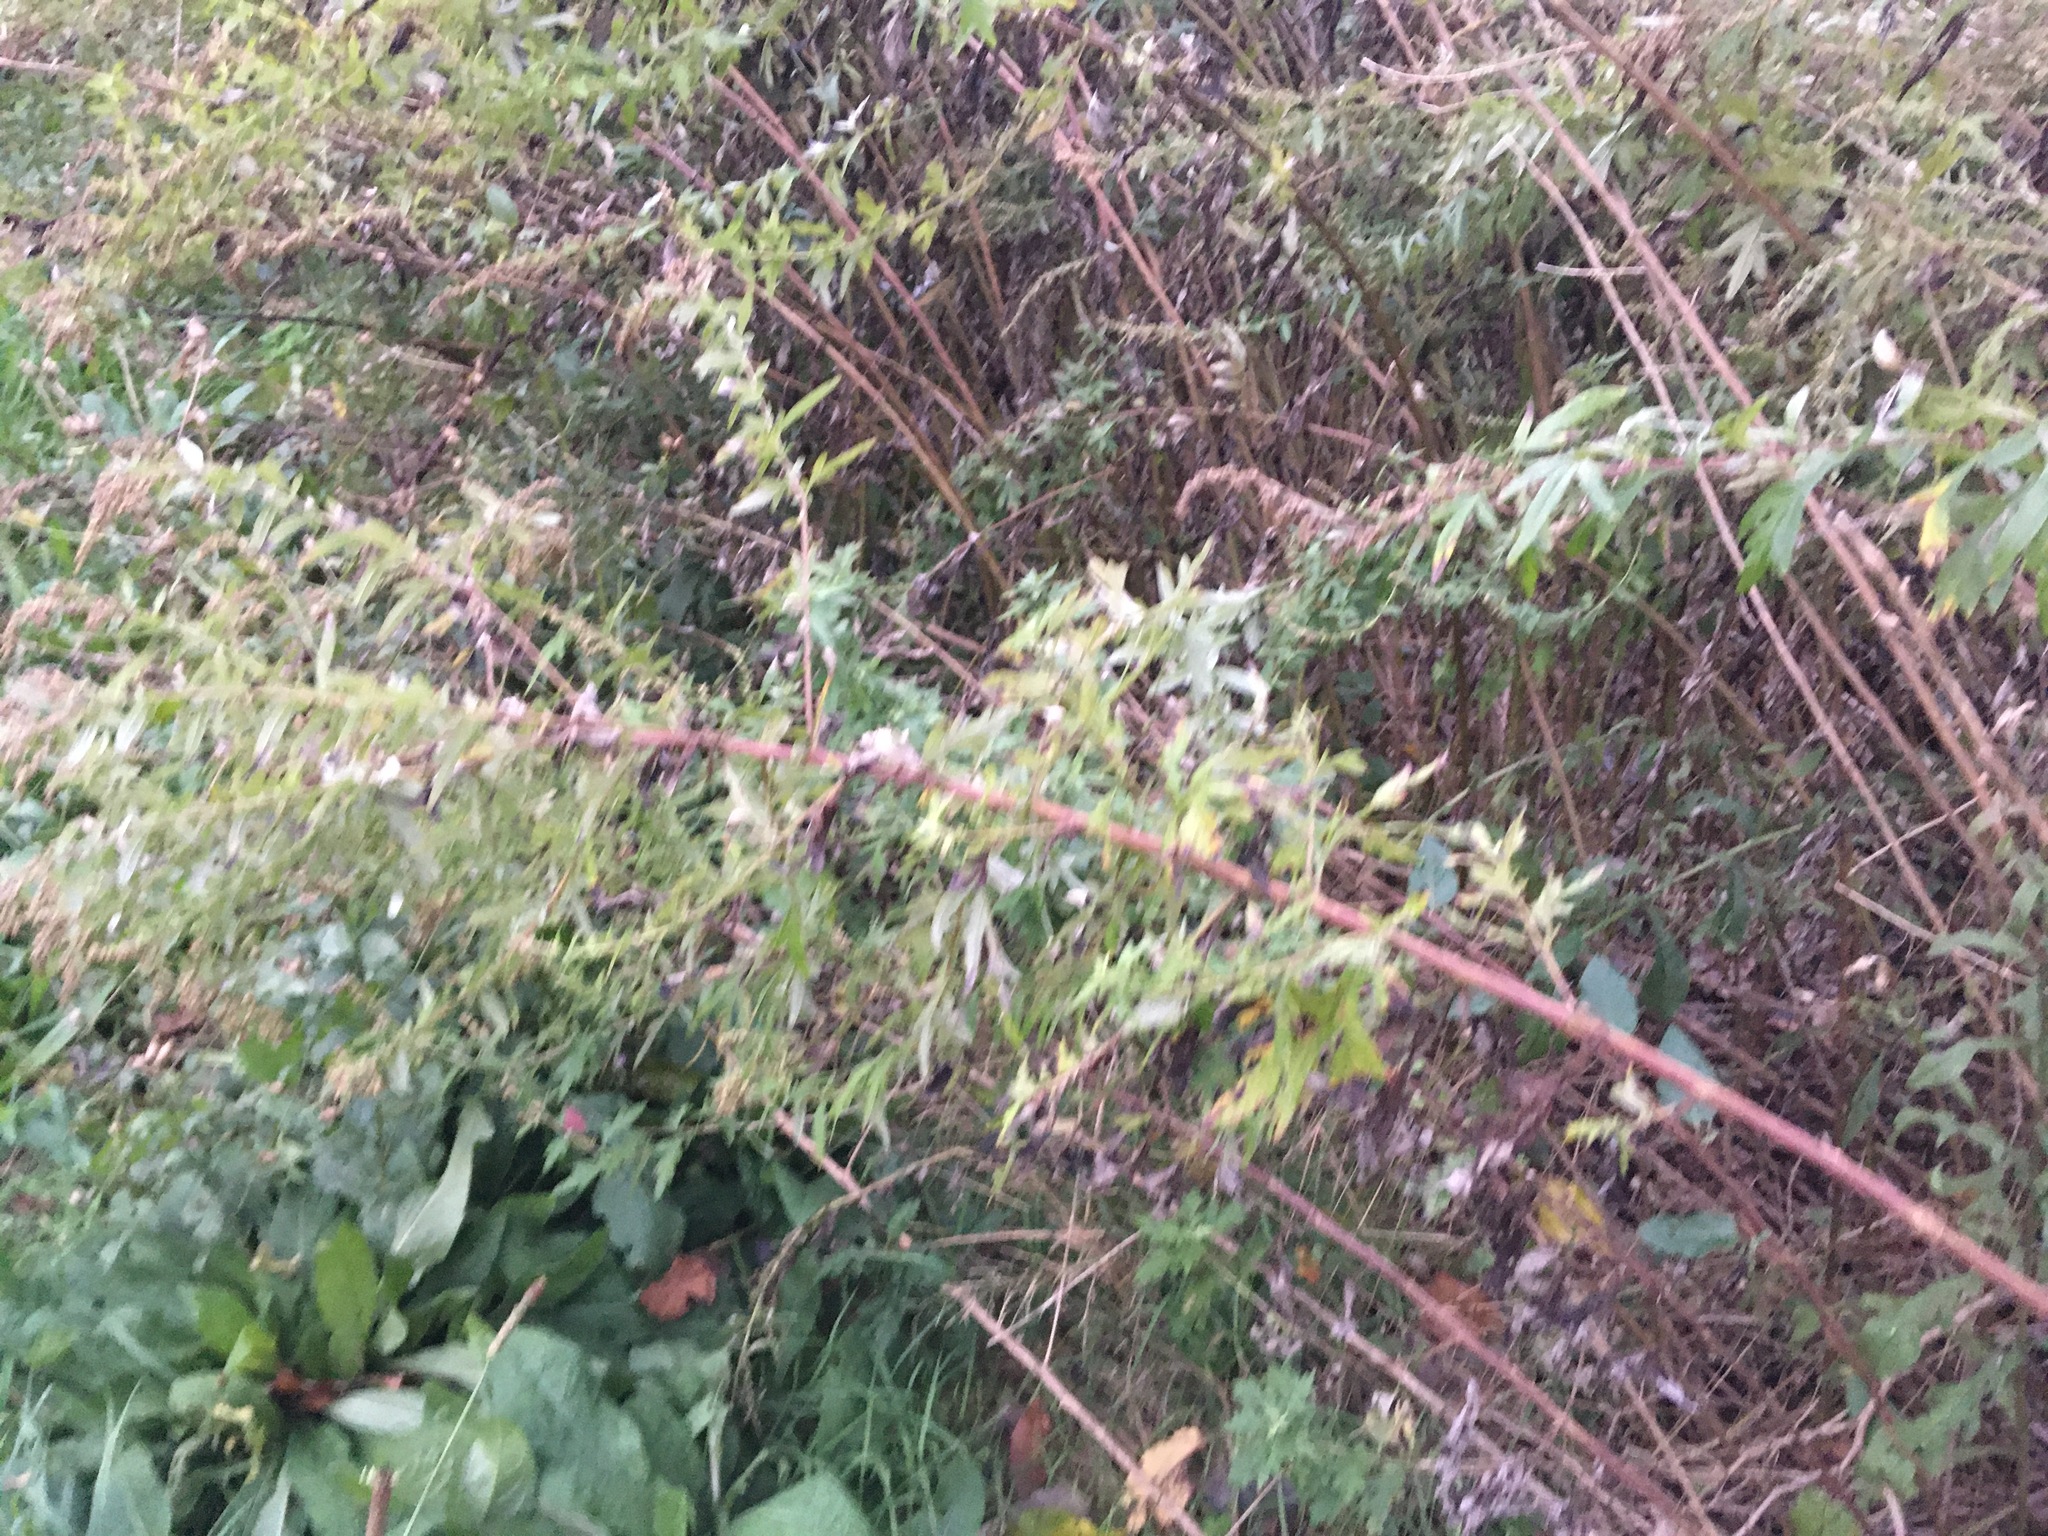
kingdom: Plantae
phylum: Tracheophyta
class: Magnoliopsida
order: Asterales
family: Asteraceae
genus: Artemisia
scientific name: Artemisia vulgaris
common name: Mugwort
